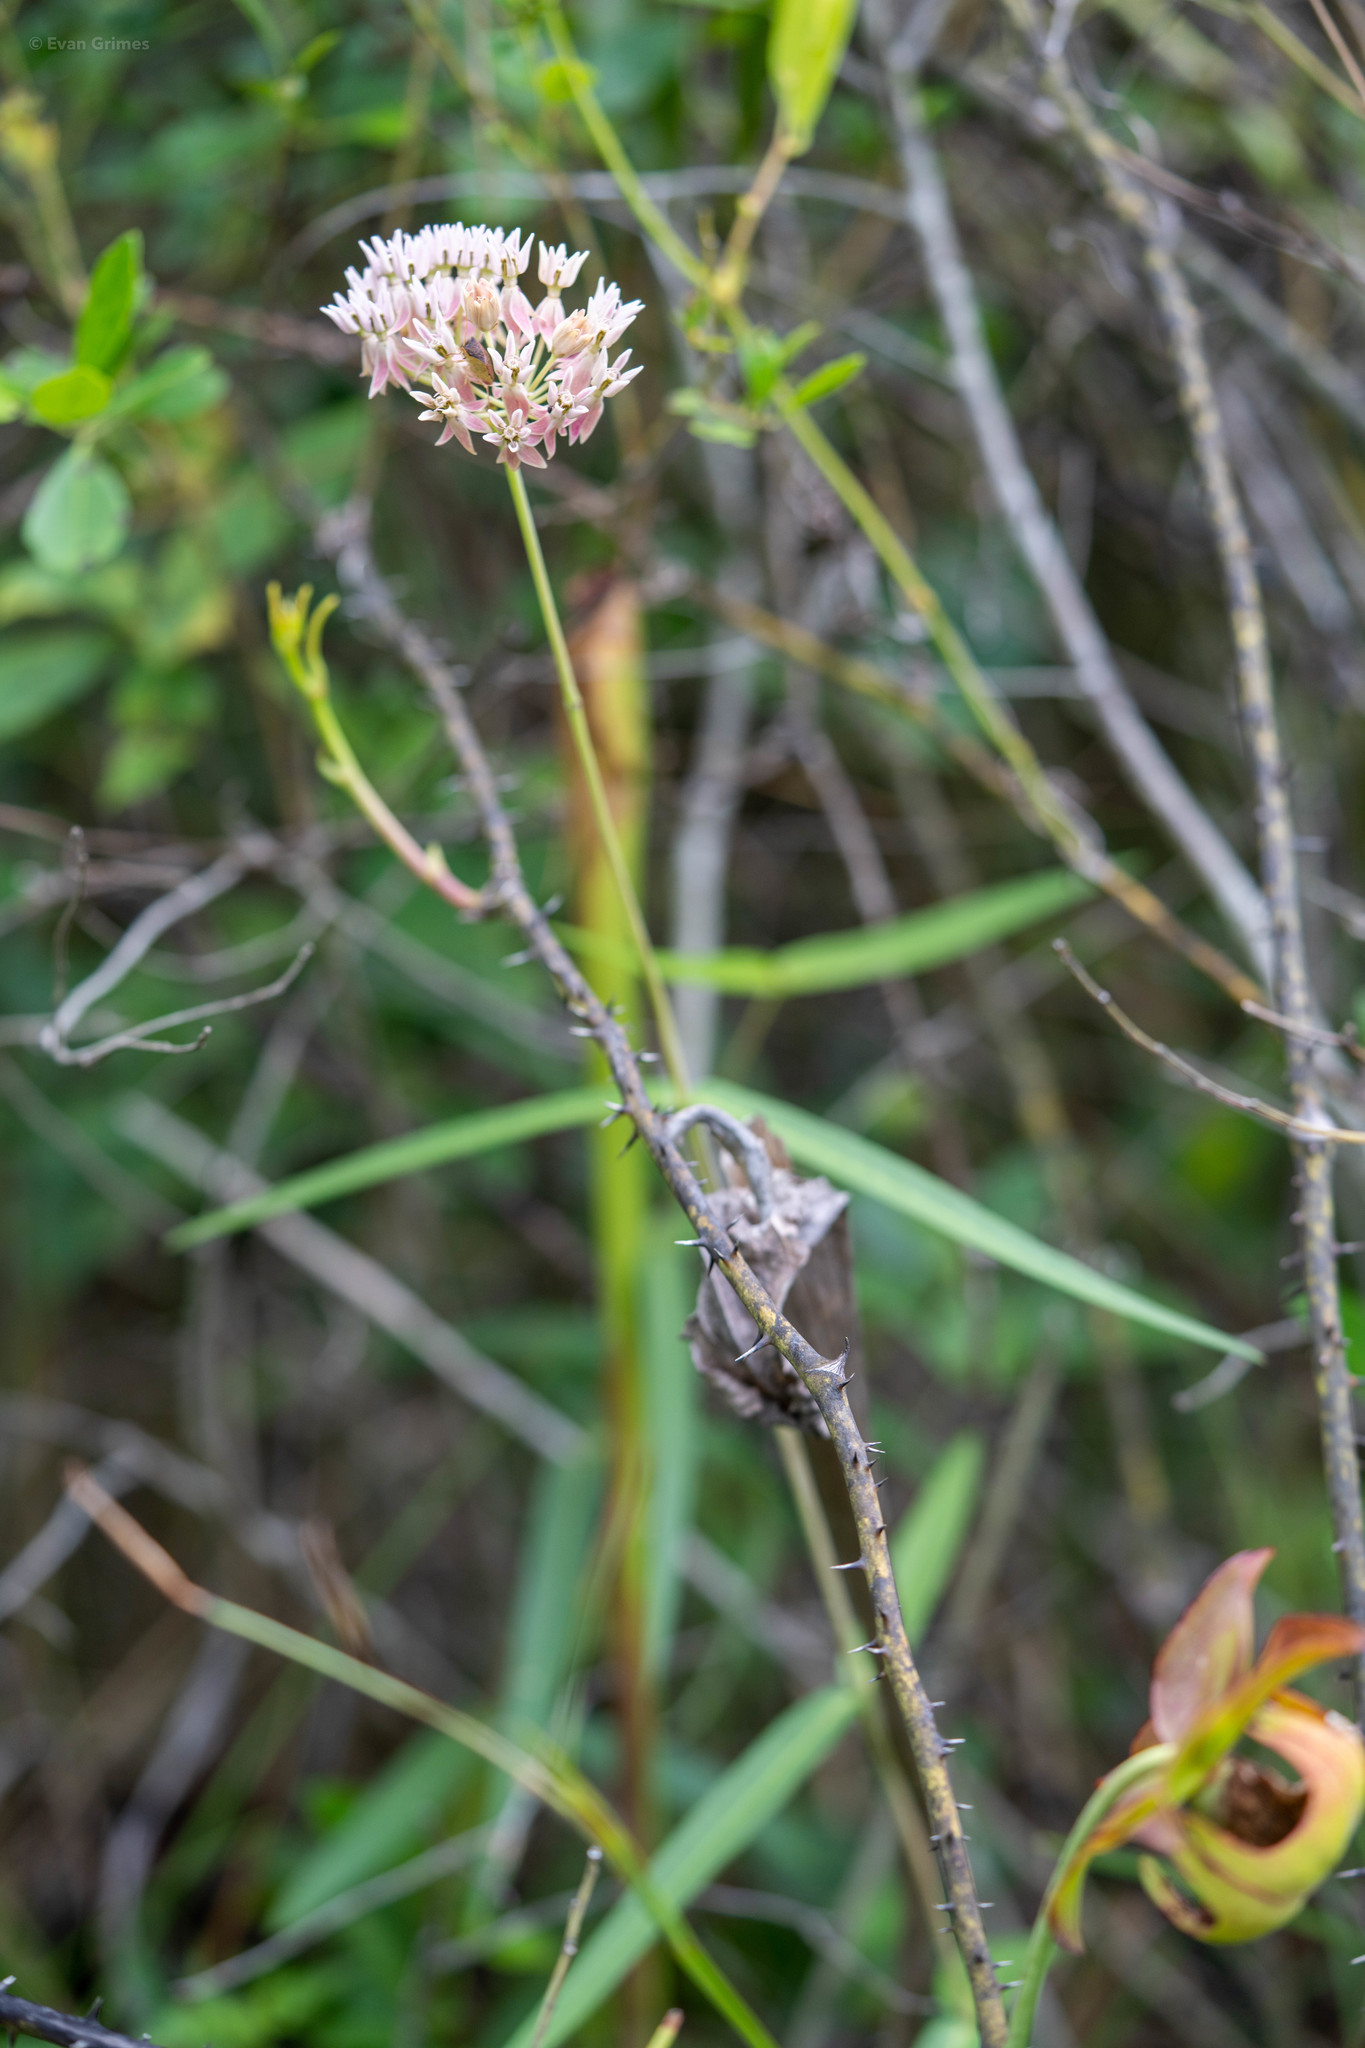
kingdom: Plantae
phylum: Tracheophyta
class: Magnoliopsida
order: Gentianales
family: Apocynaceae
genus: Asclepias
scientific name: Asclepias rubra
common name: Red milkweed
